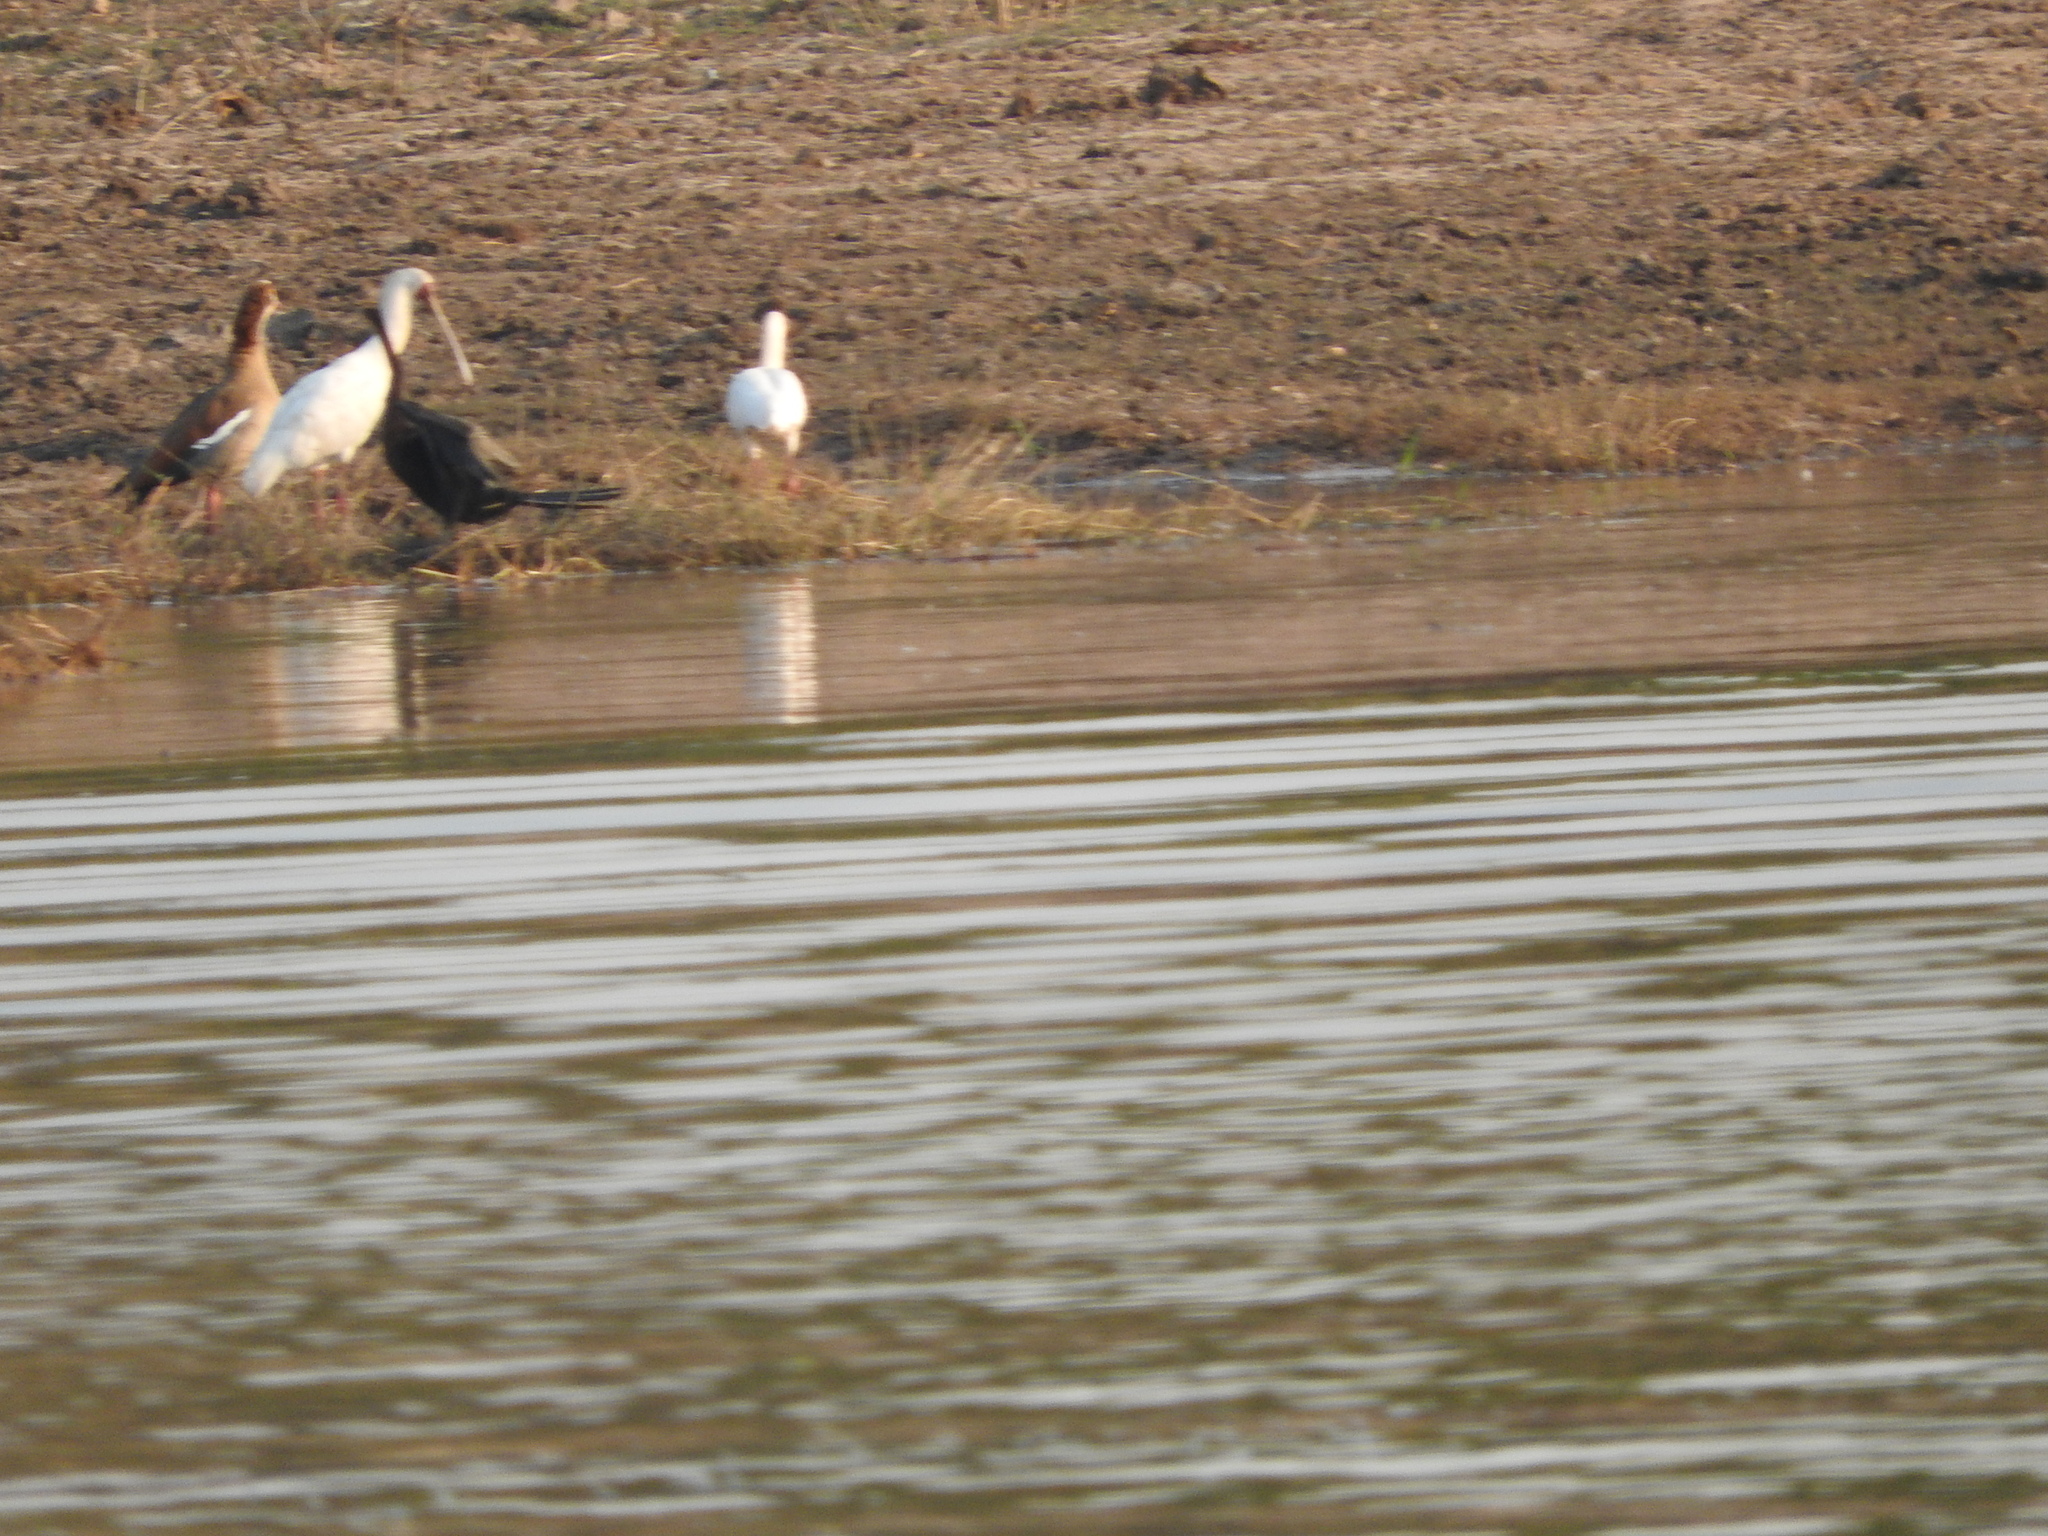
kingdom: Animalia
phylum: Chordata
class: Aves
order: Pelecaniformes
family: Threskiornithidae
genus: Platalea
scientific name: Platalea alba
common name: African spoonbill
